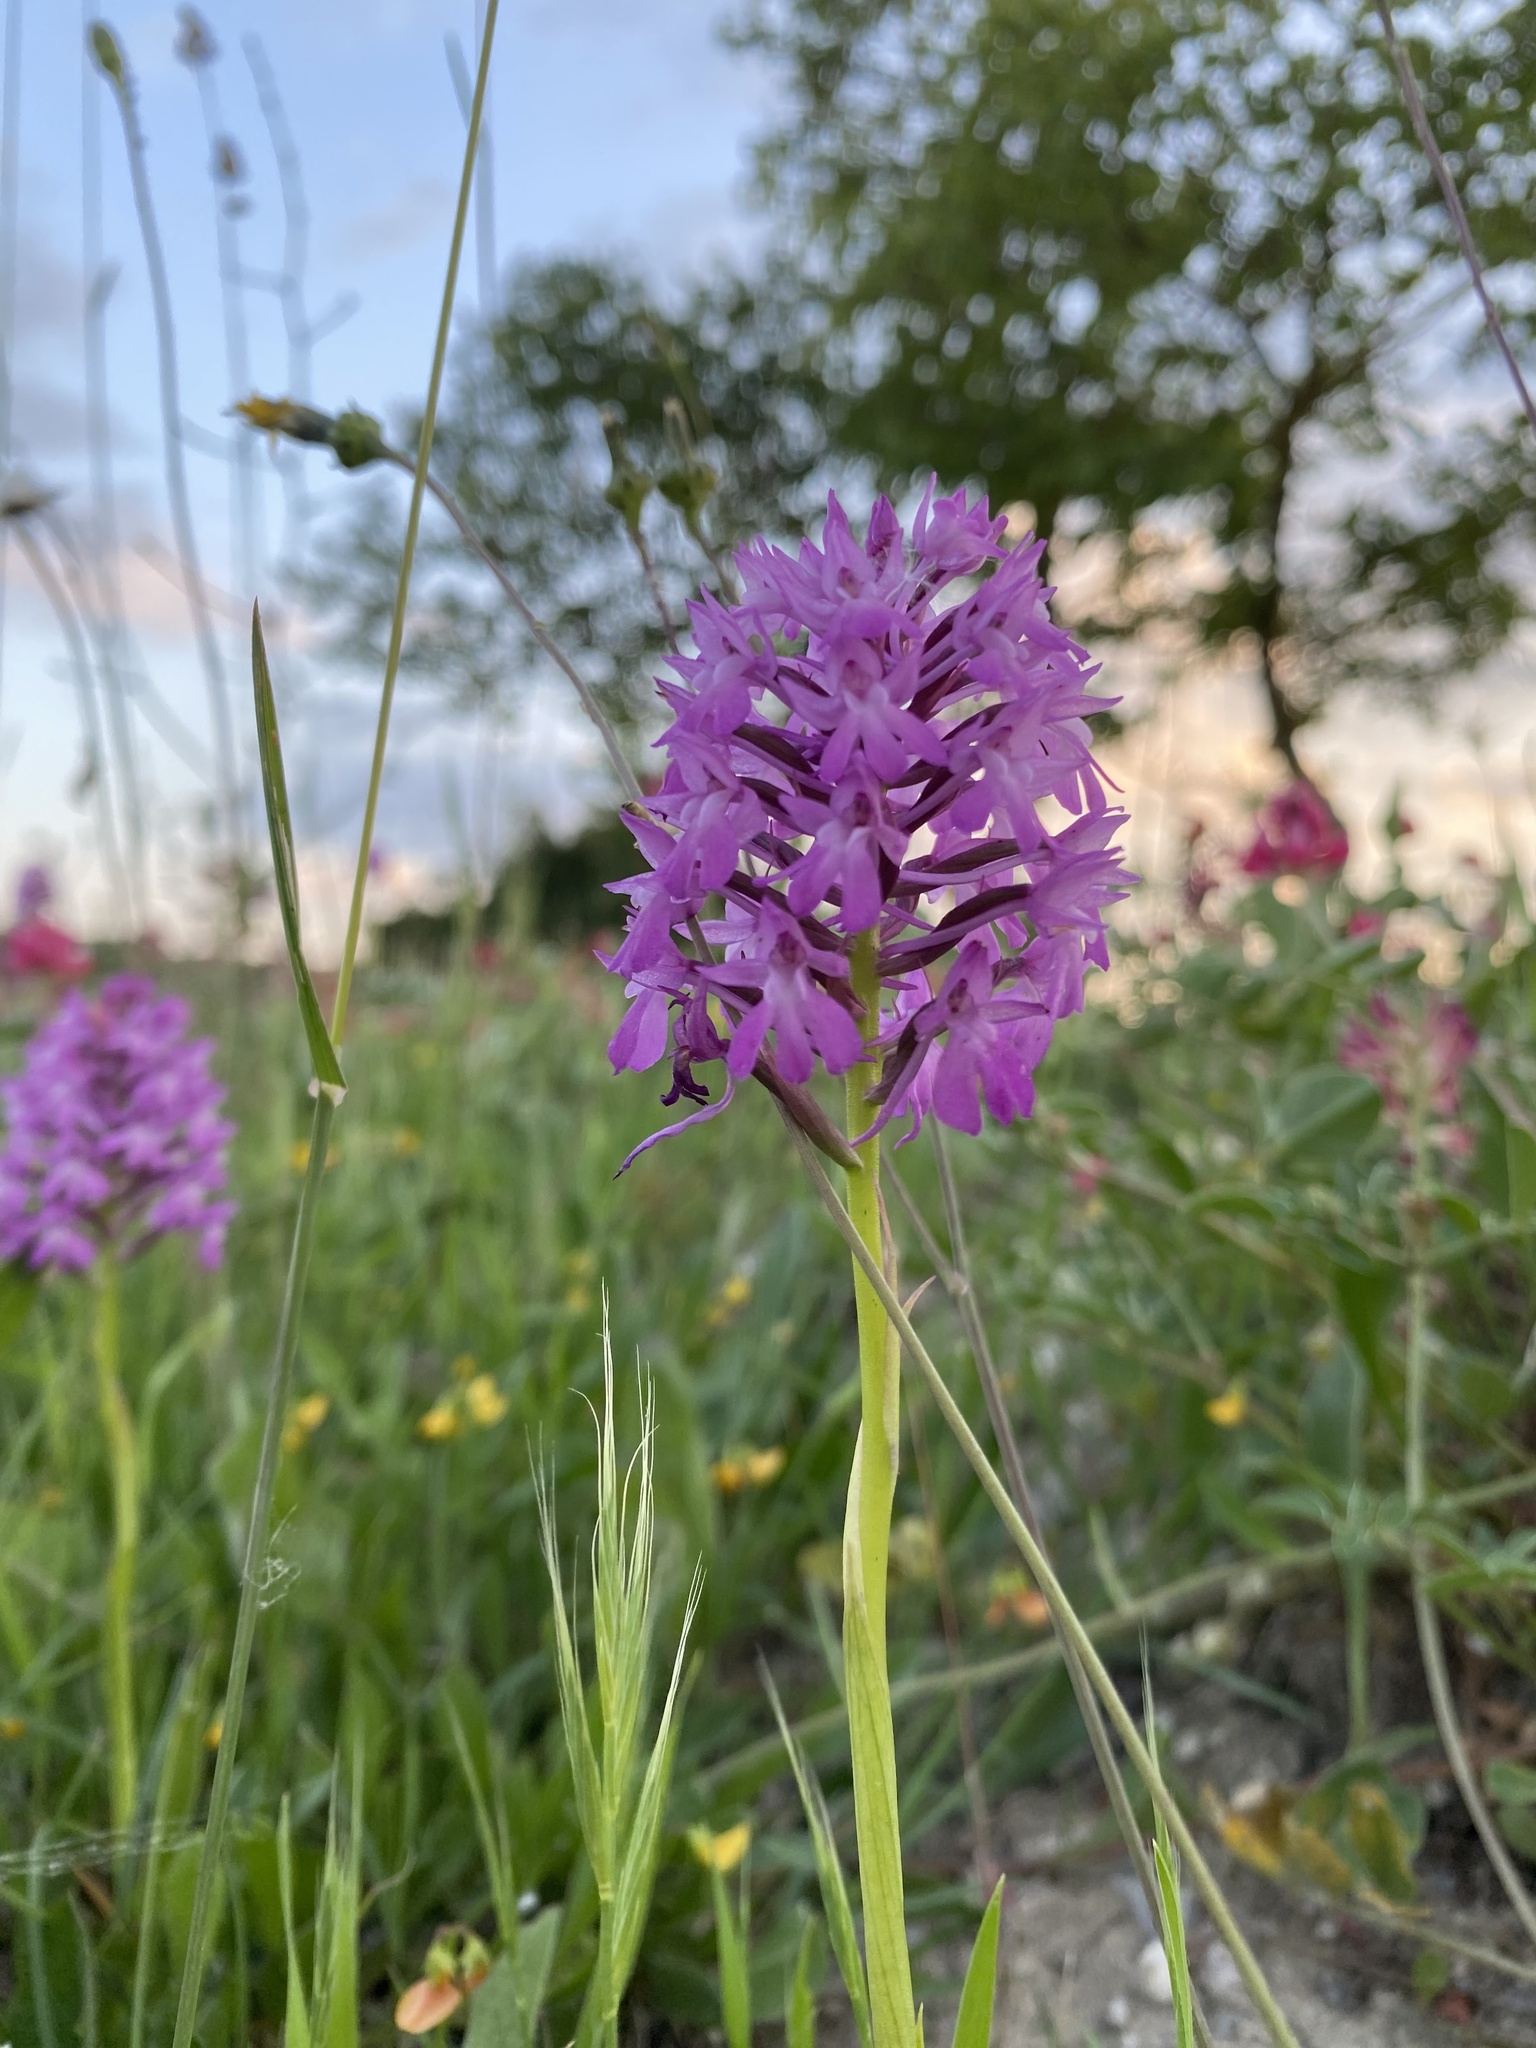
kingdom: Plantae
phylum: Tracheophyta
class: Liliopsida
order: Asparagales
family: Orchidaceae
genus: Anacamptis
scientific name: Anacamptis pyramidalis
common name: Pyramidal orchid
